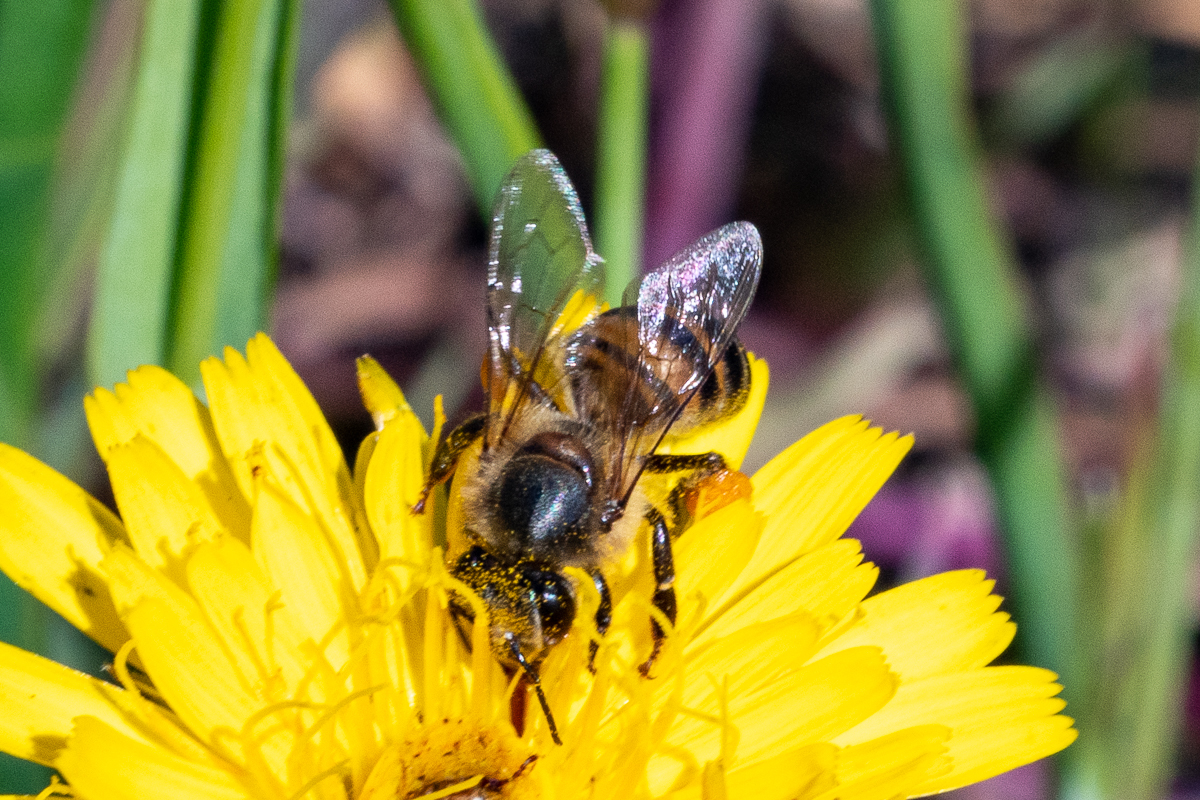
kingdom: Animalia
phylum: Arthropoda
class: Insecta
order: Hymenoptera
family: Apidae
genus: Apis
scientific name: Apis mellifera
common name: Honey bee
